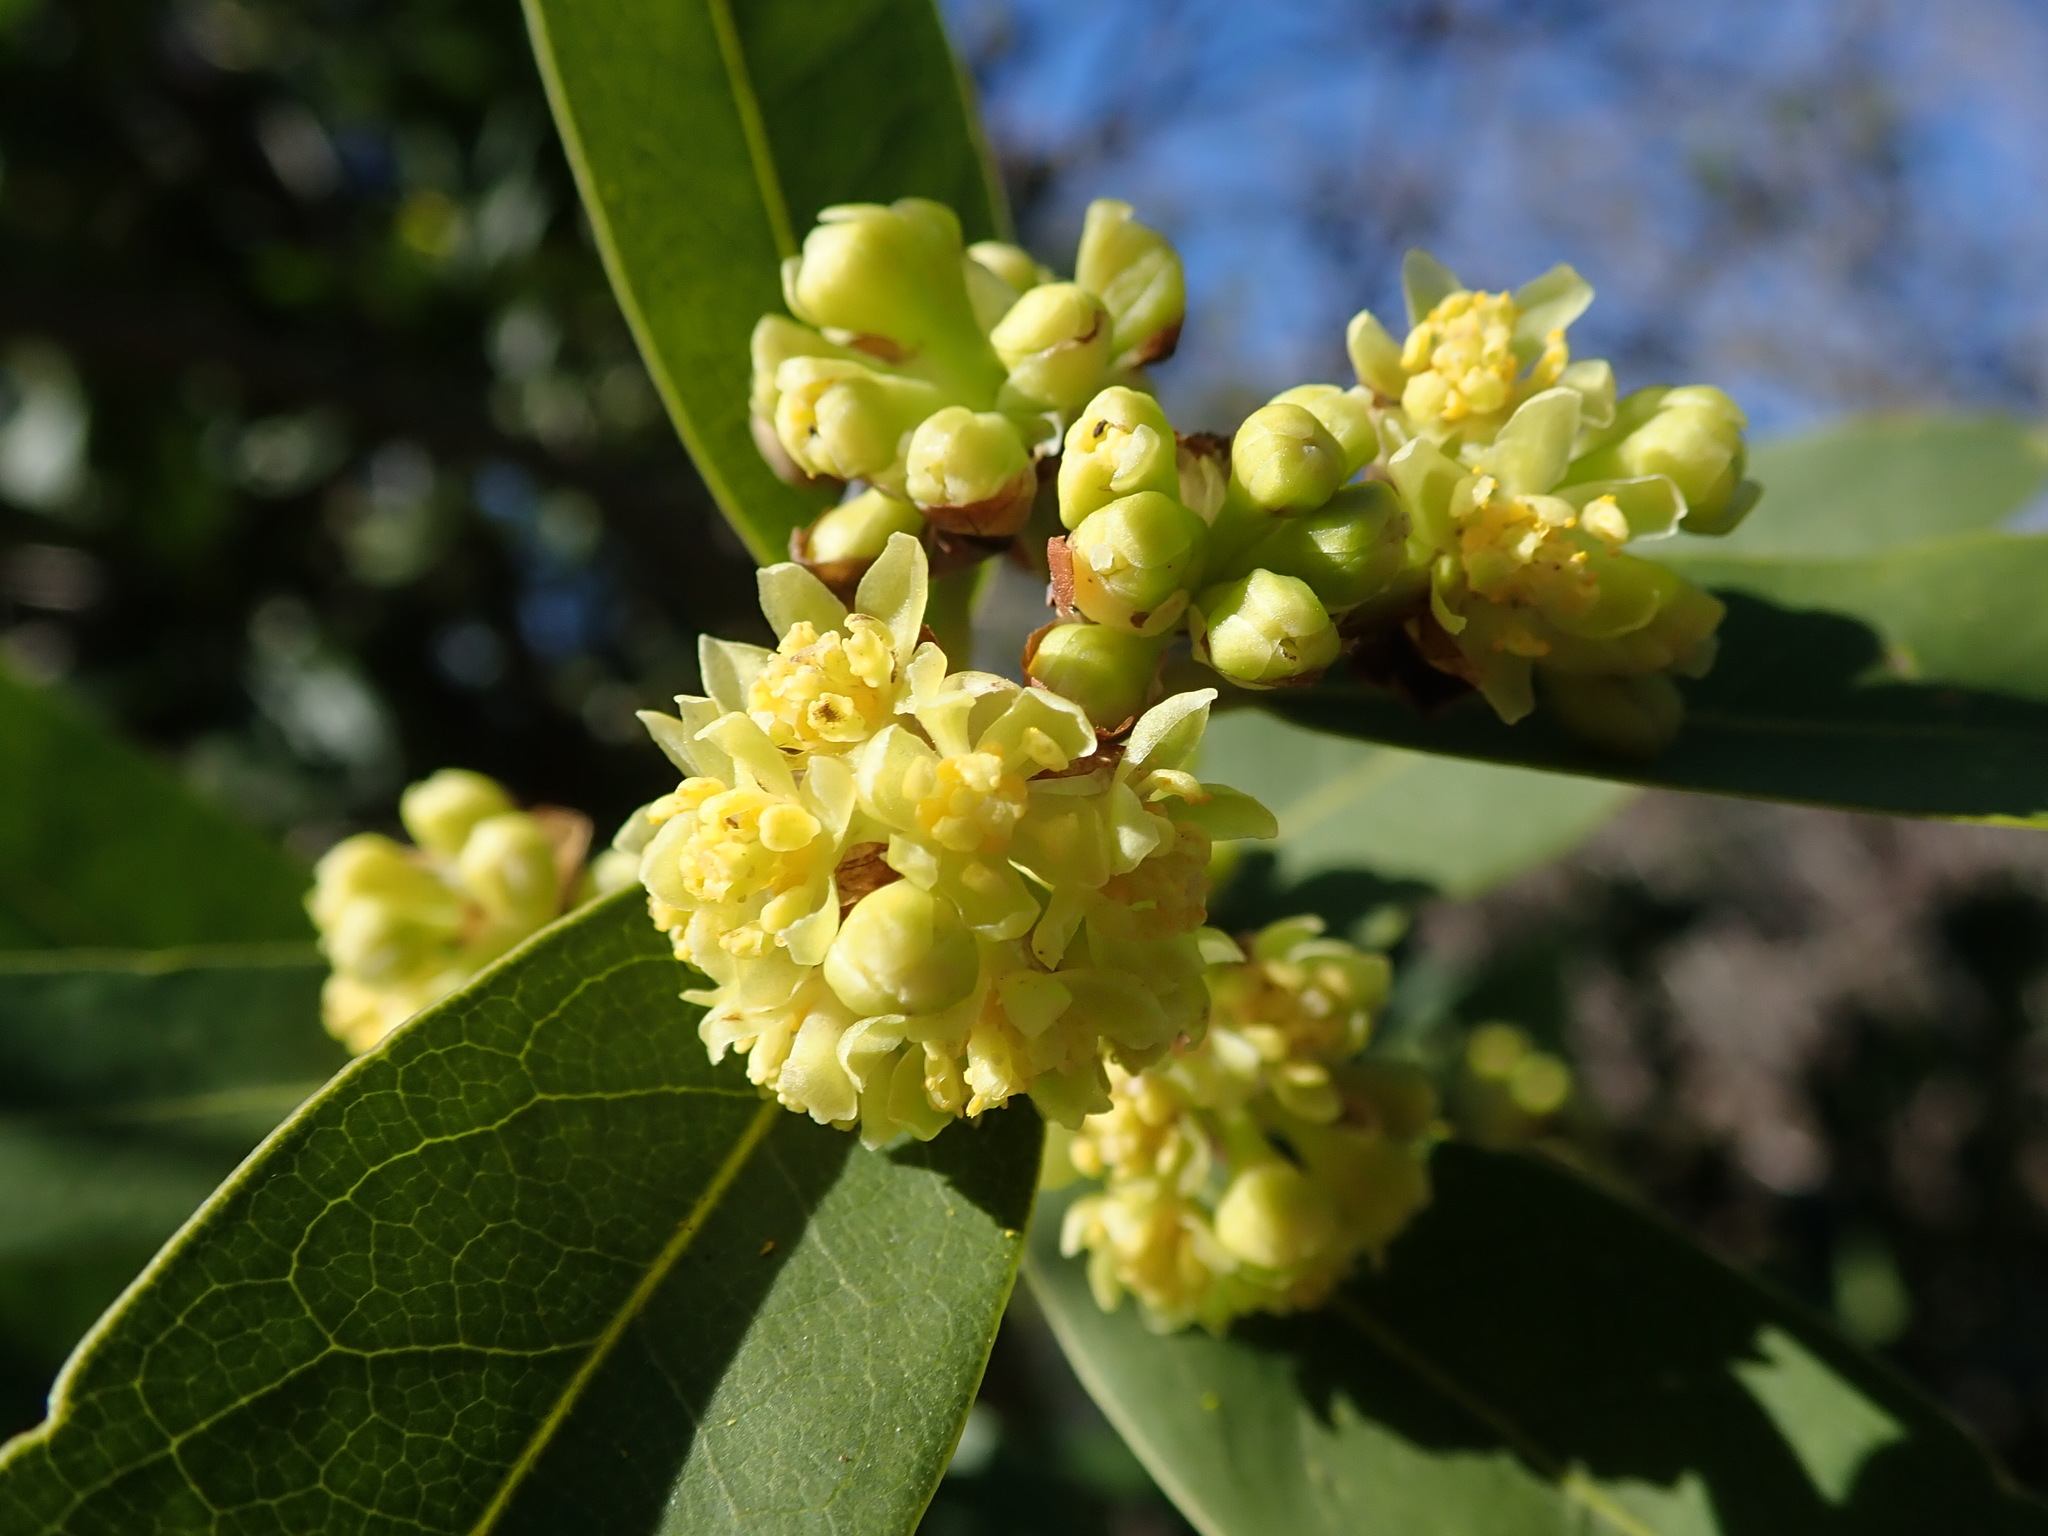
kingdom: Plantae
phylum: Tracheophyta
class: Magnoliopsida
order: Laurales
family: Lauraceae
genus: Umbellularia
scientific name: Umbellularia californica
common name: California bay
